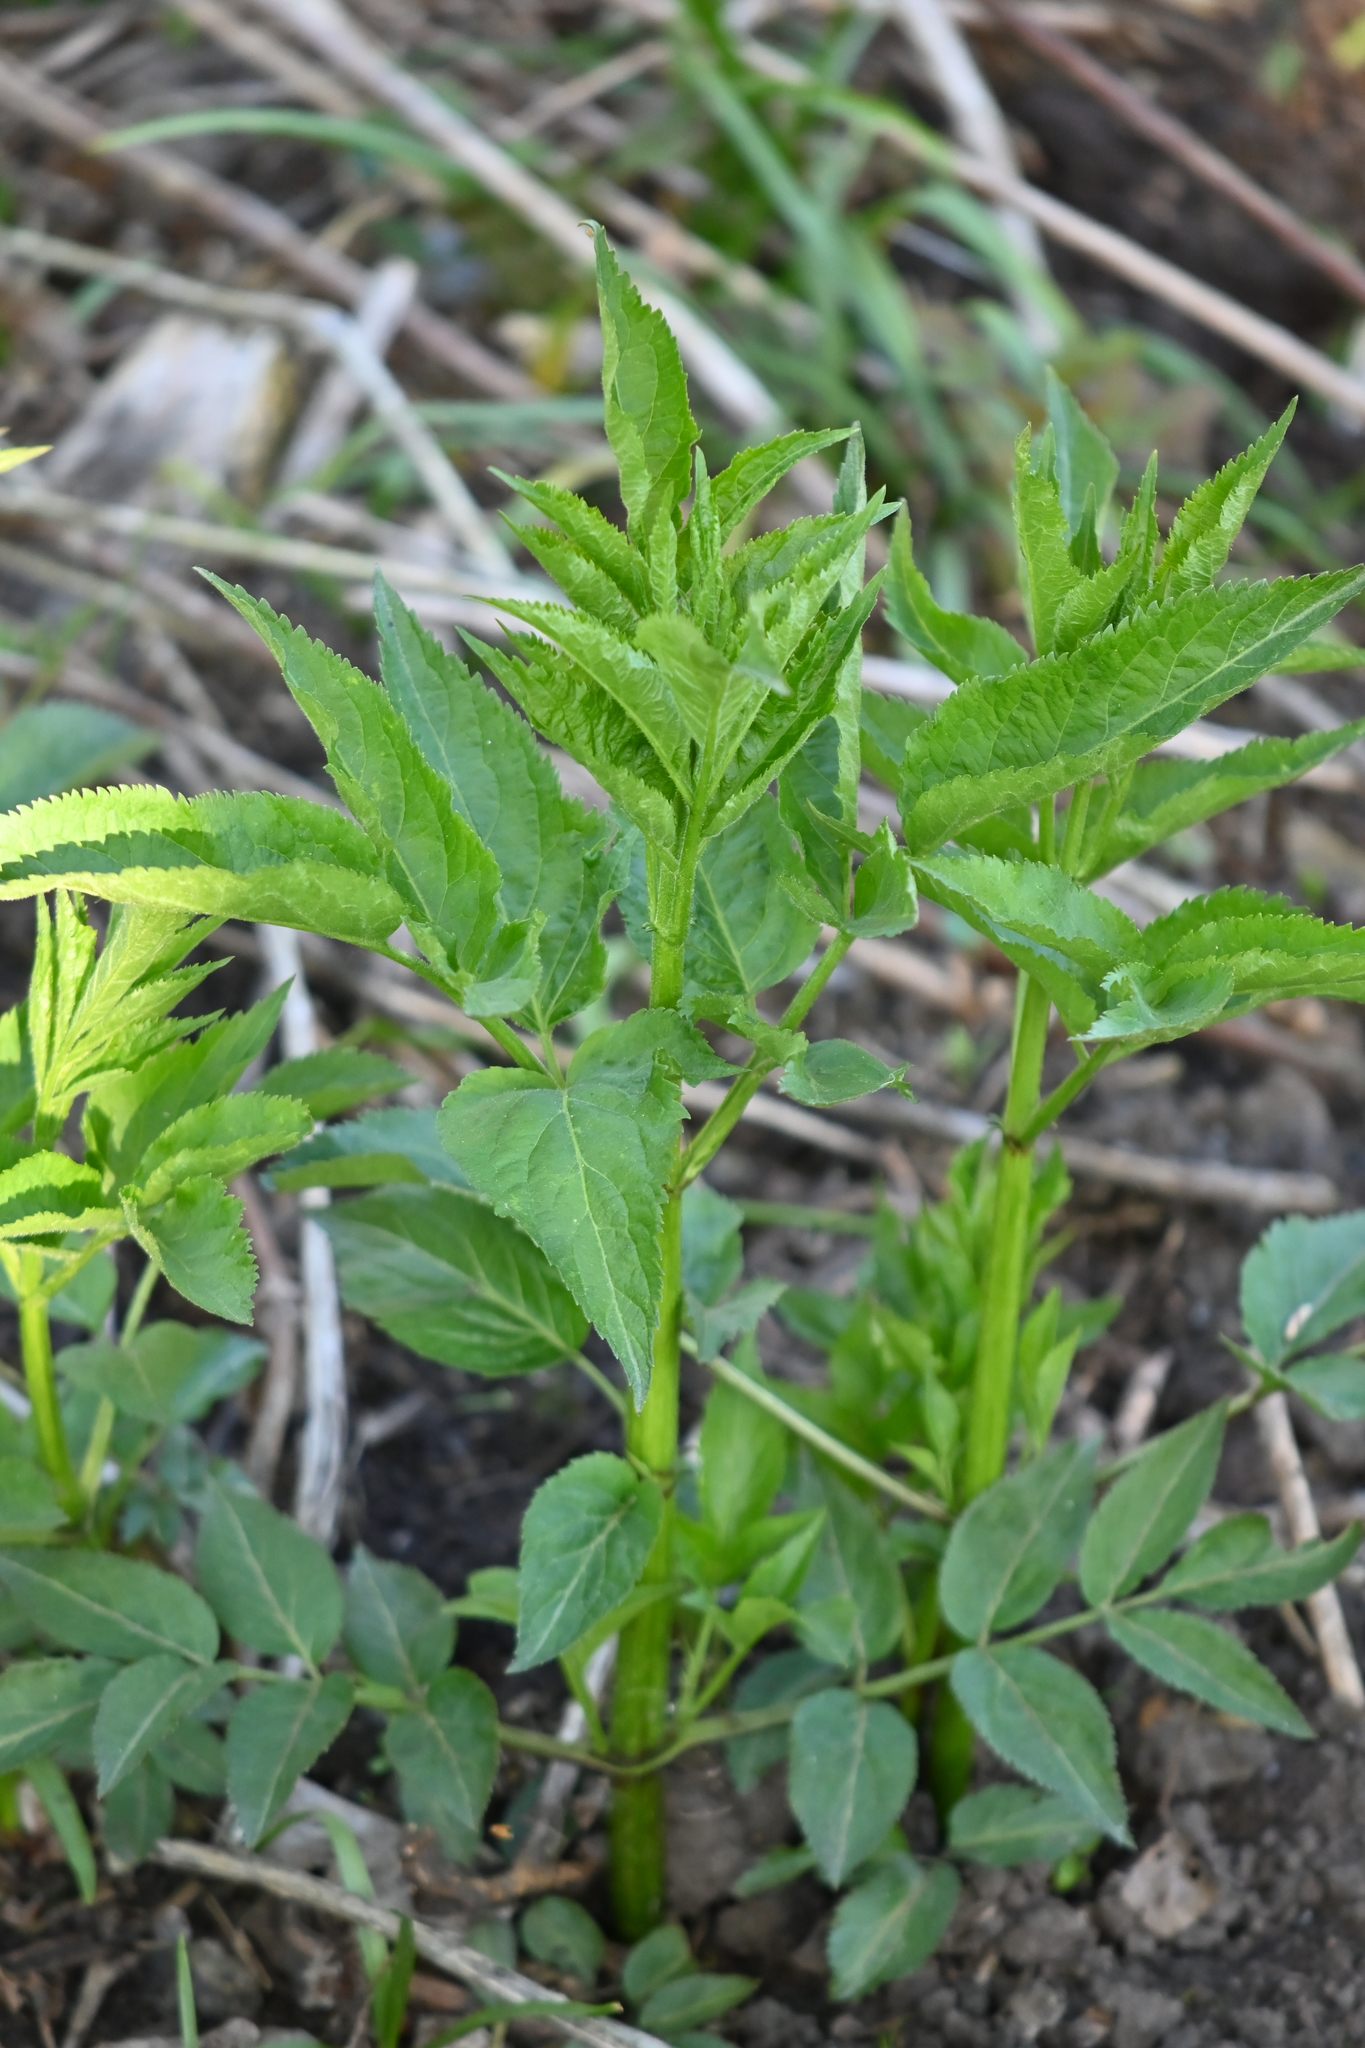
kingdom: Plantae
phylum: Tracheophyta
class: Magnoliopsida
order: Dipsacales
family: Viburnaceae
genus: Sambucus
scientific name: Sambucus nigra
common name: Elder
